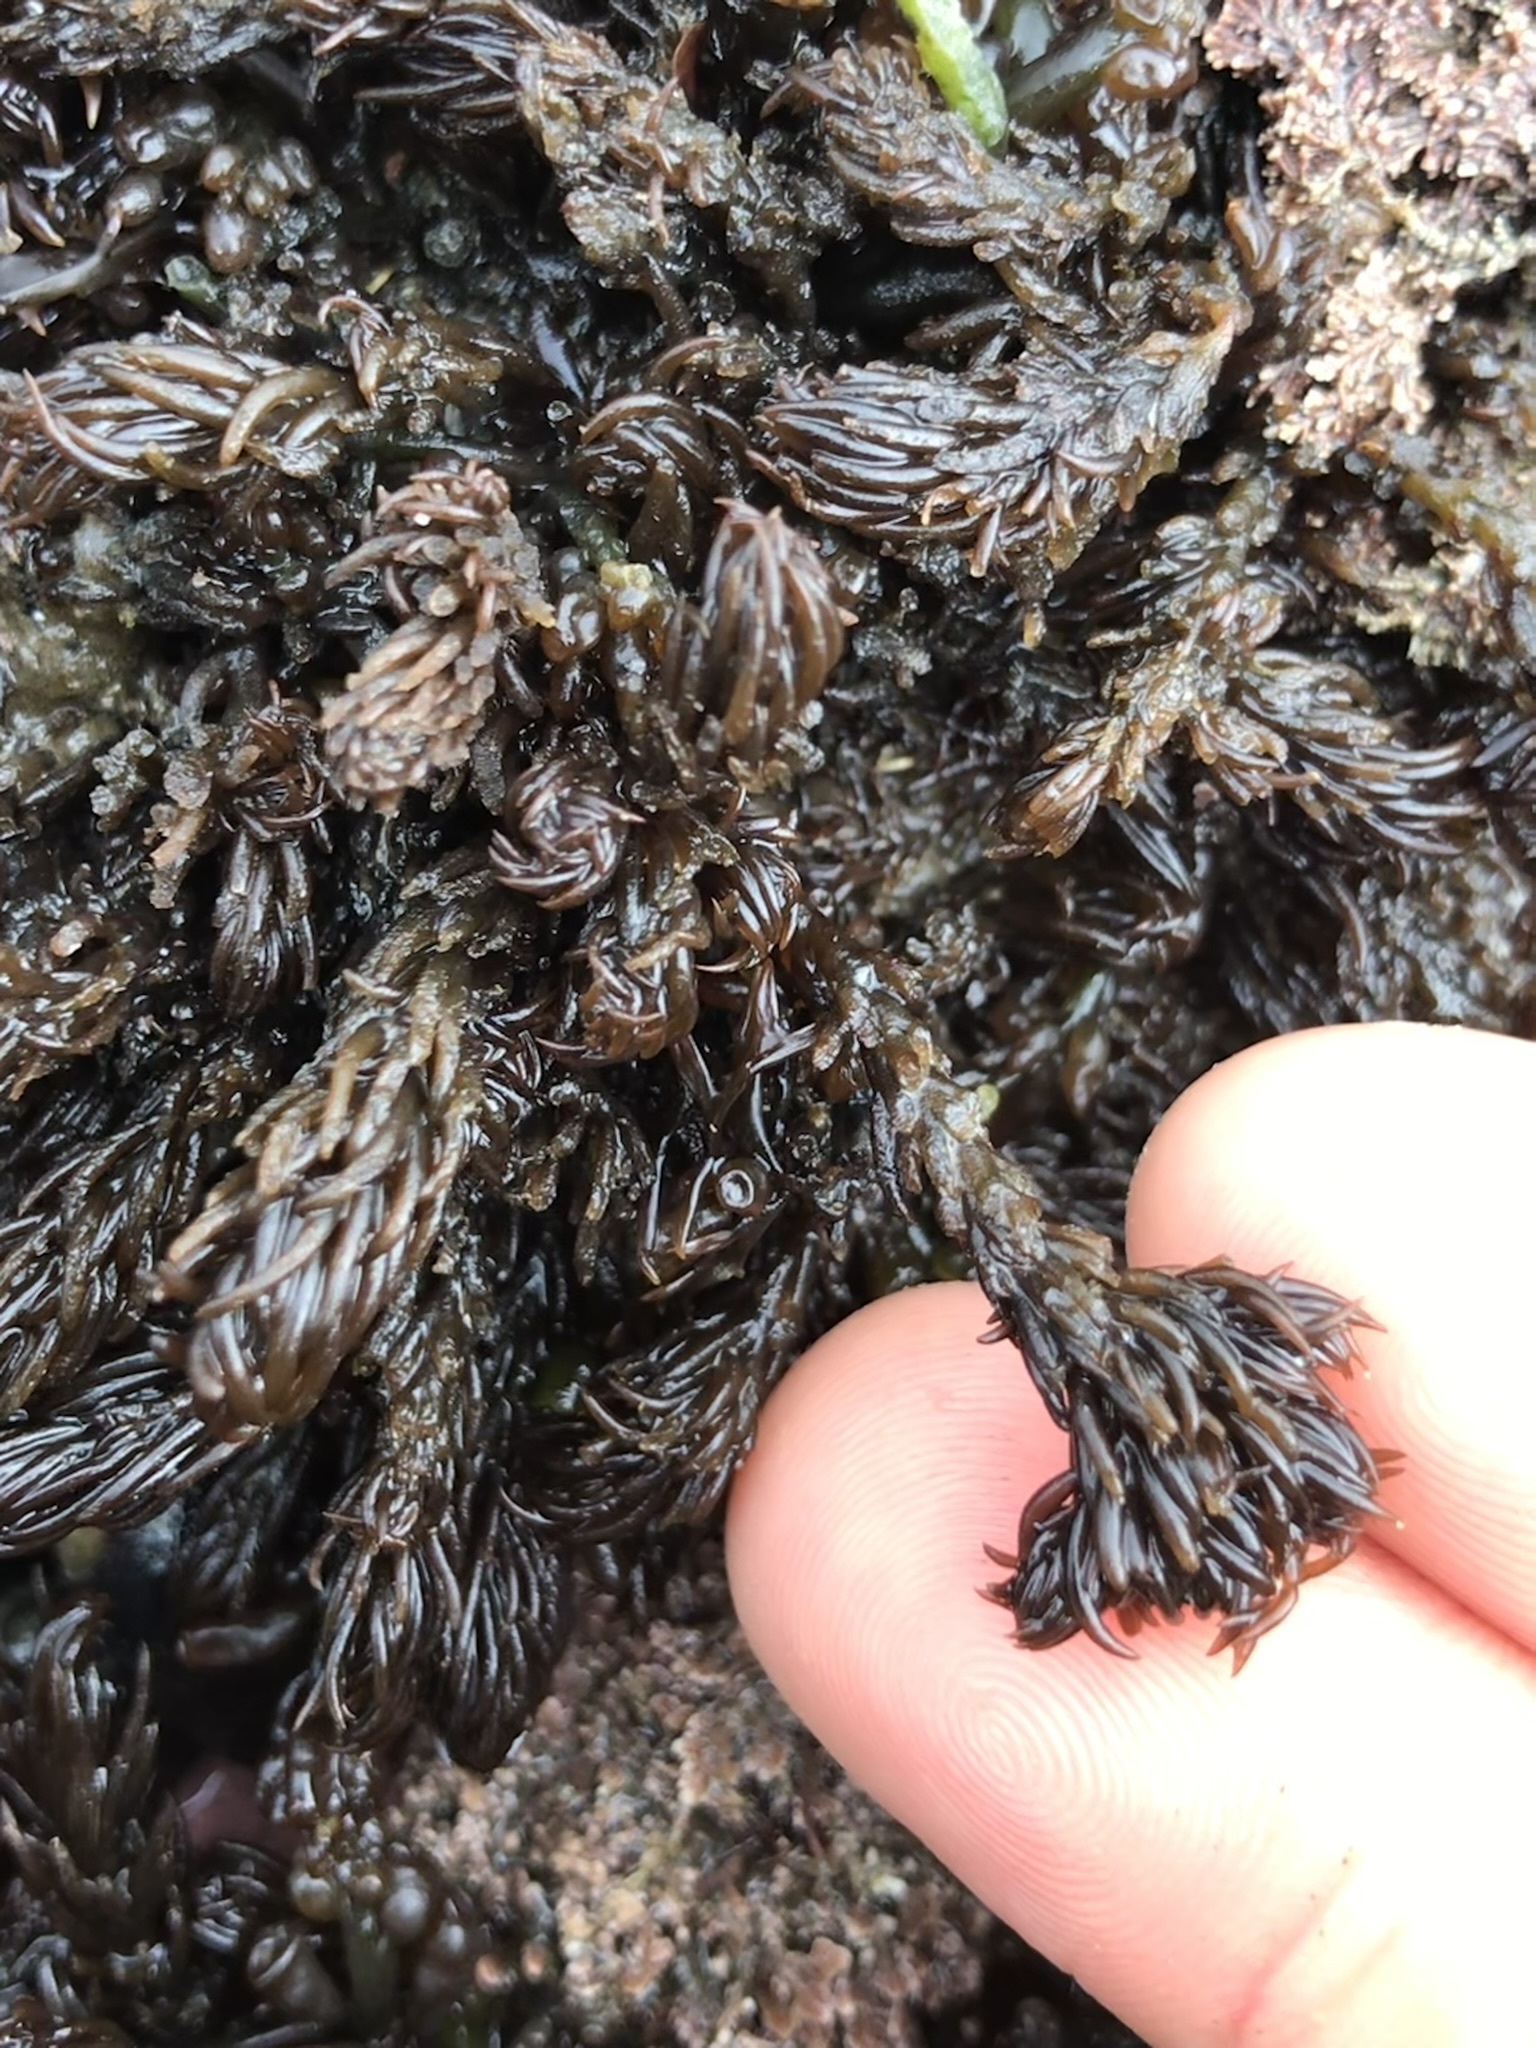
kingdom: Plantae
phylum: Rhodophyta
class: Florideophyceae
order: Ceramiales
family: Rhodomelaceae
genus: Neorhodomela
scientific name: Neorhodomela larix
